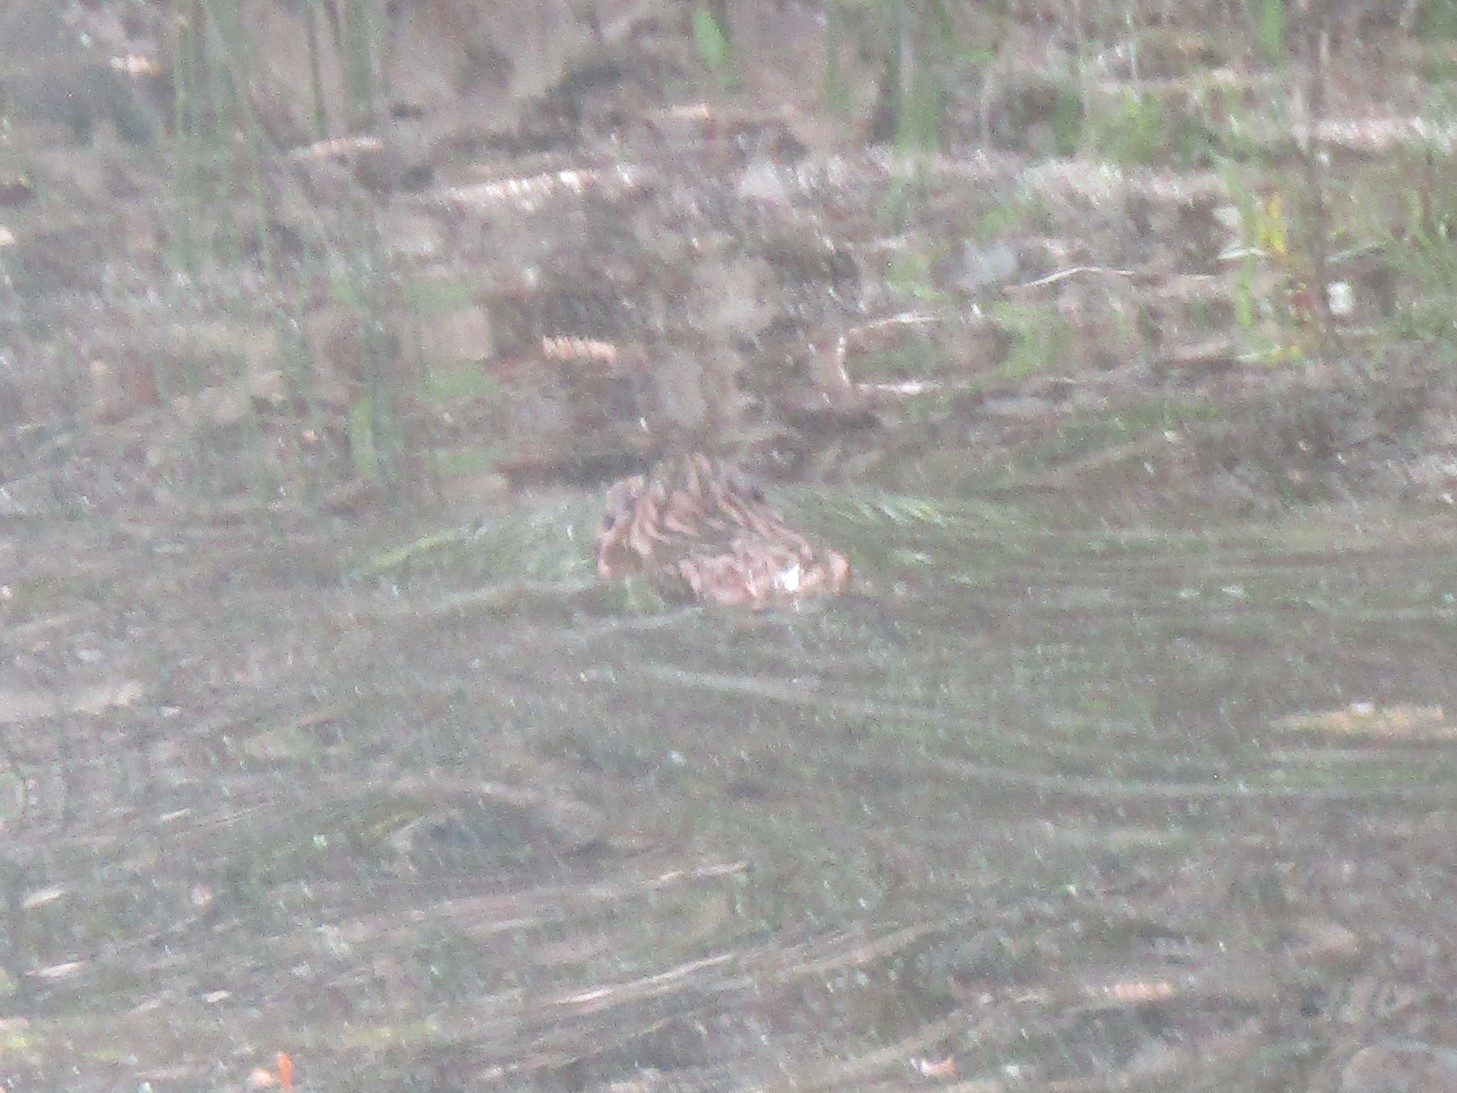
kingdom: Animalia
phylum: Chordata
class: Mammalia
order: Rodentia
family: Cricetidae
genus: Ondatra
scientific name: Ondatra zibethicus
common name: Muskrat
